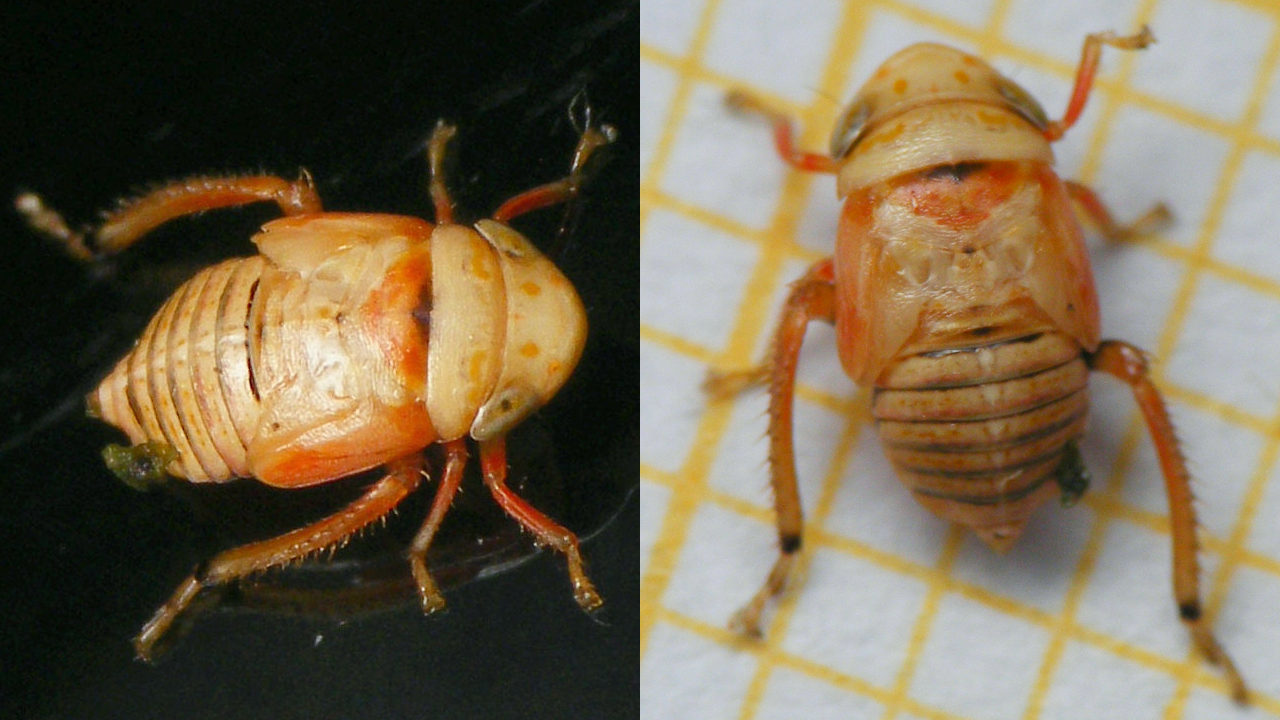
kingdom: Animalia
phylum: Arthropoda
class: Insecta
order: Hemiptera
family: Cicadellidae
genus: Penthimia
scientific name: Penthimia irrorata
